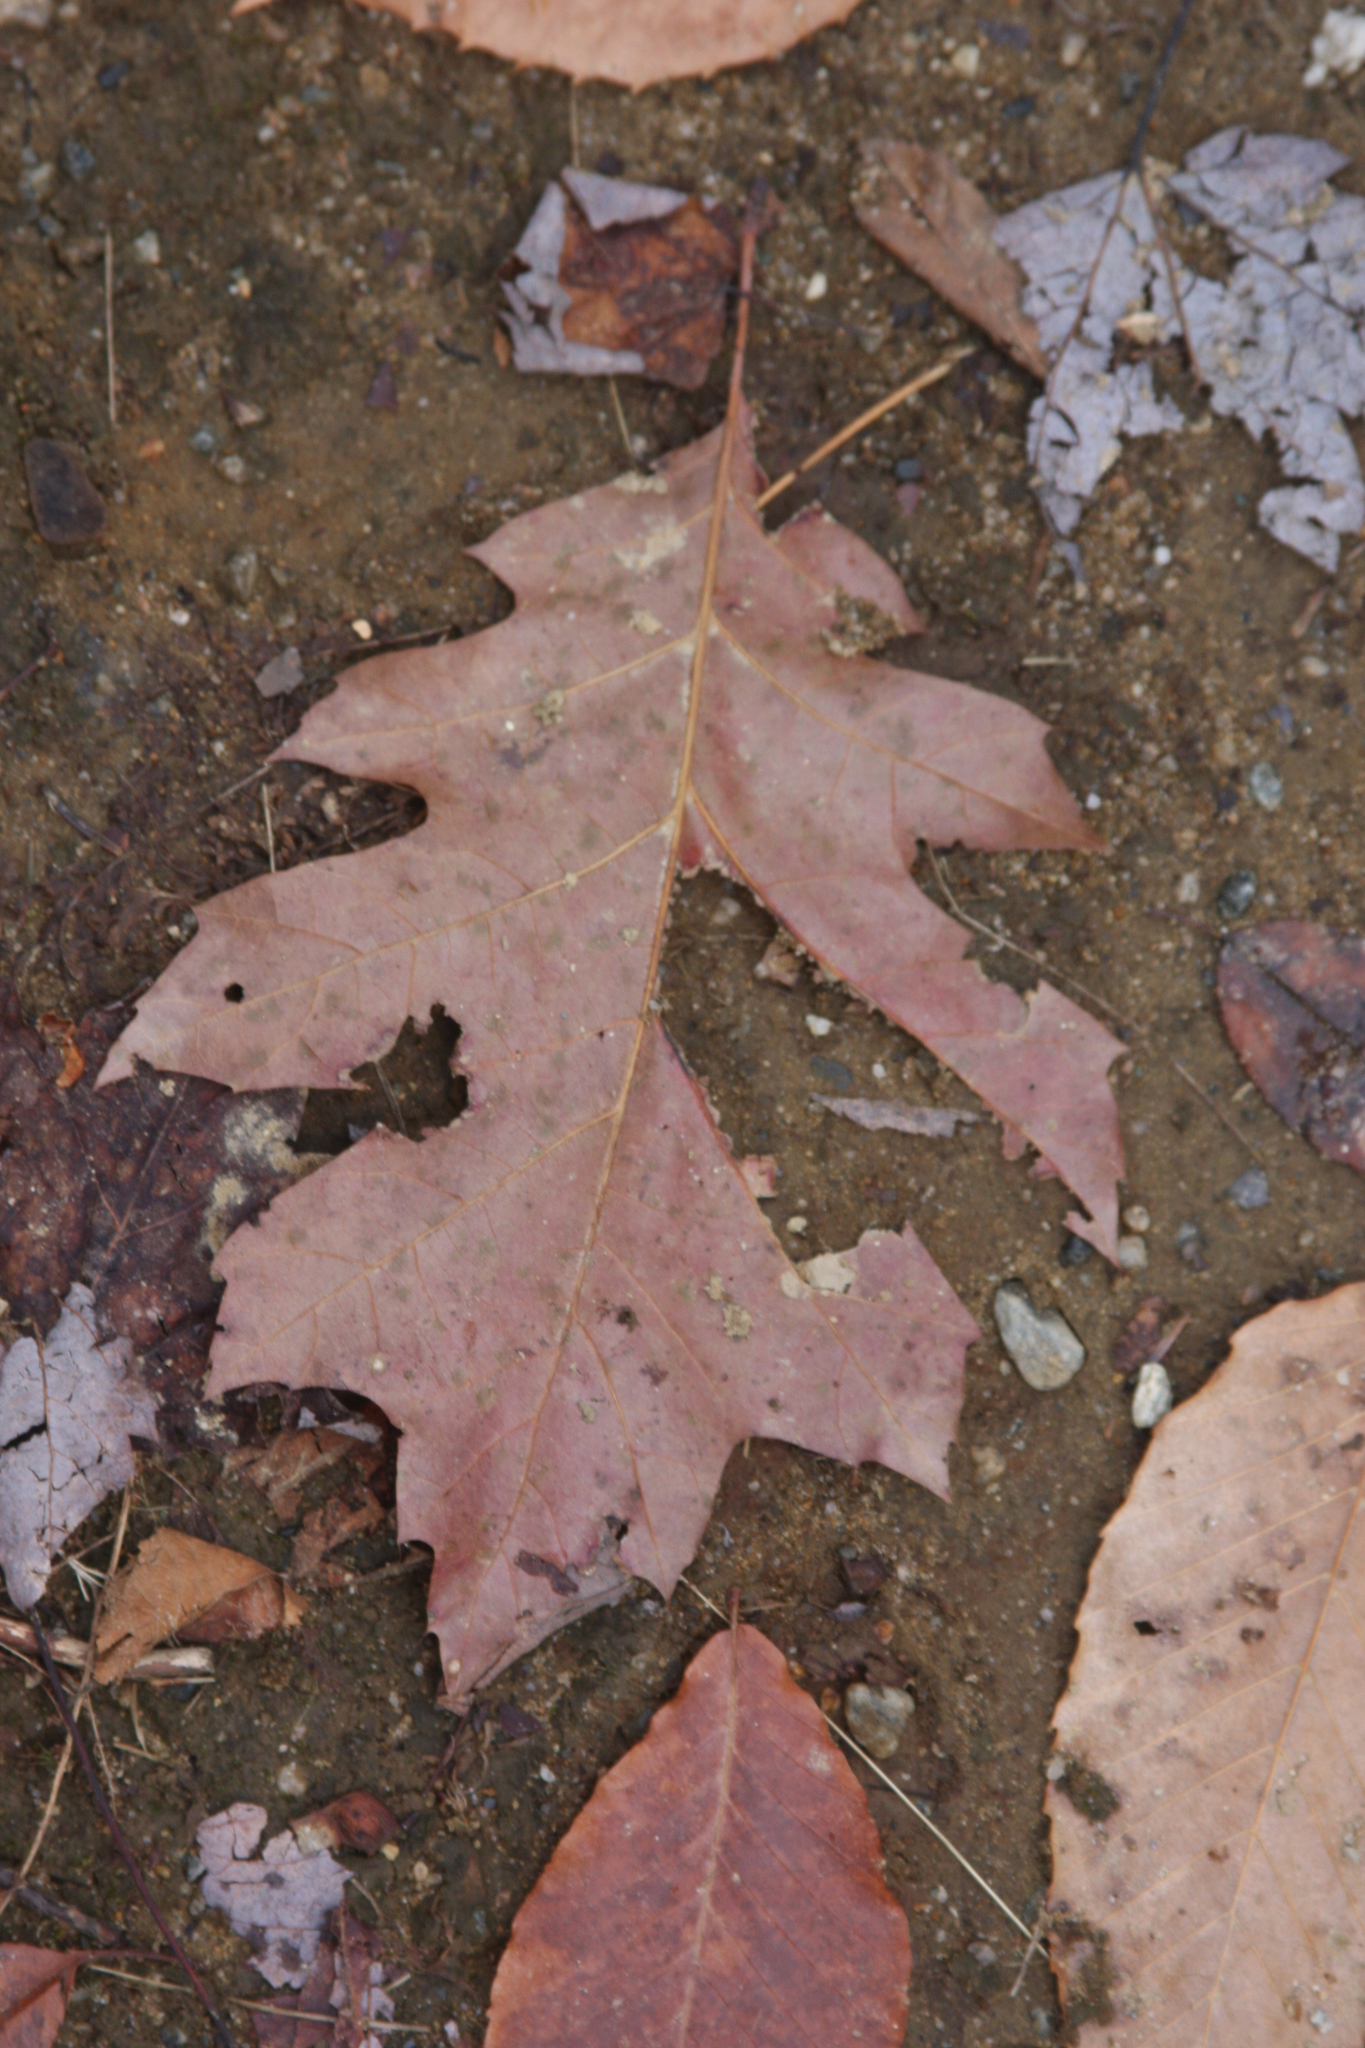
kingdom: Plantae
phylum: Tracheophyta
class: Magnoliopsida
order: Fagales
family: Fagaceae
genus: Quercus
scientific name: Quercus rubra
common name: Red oak
